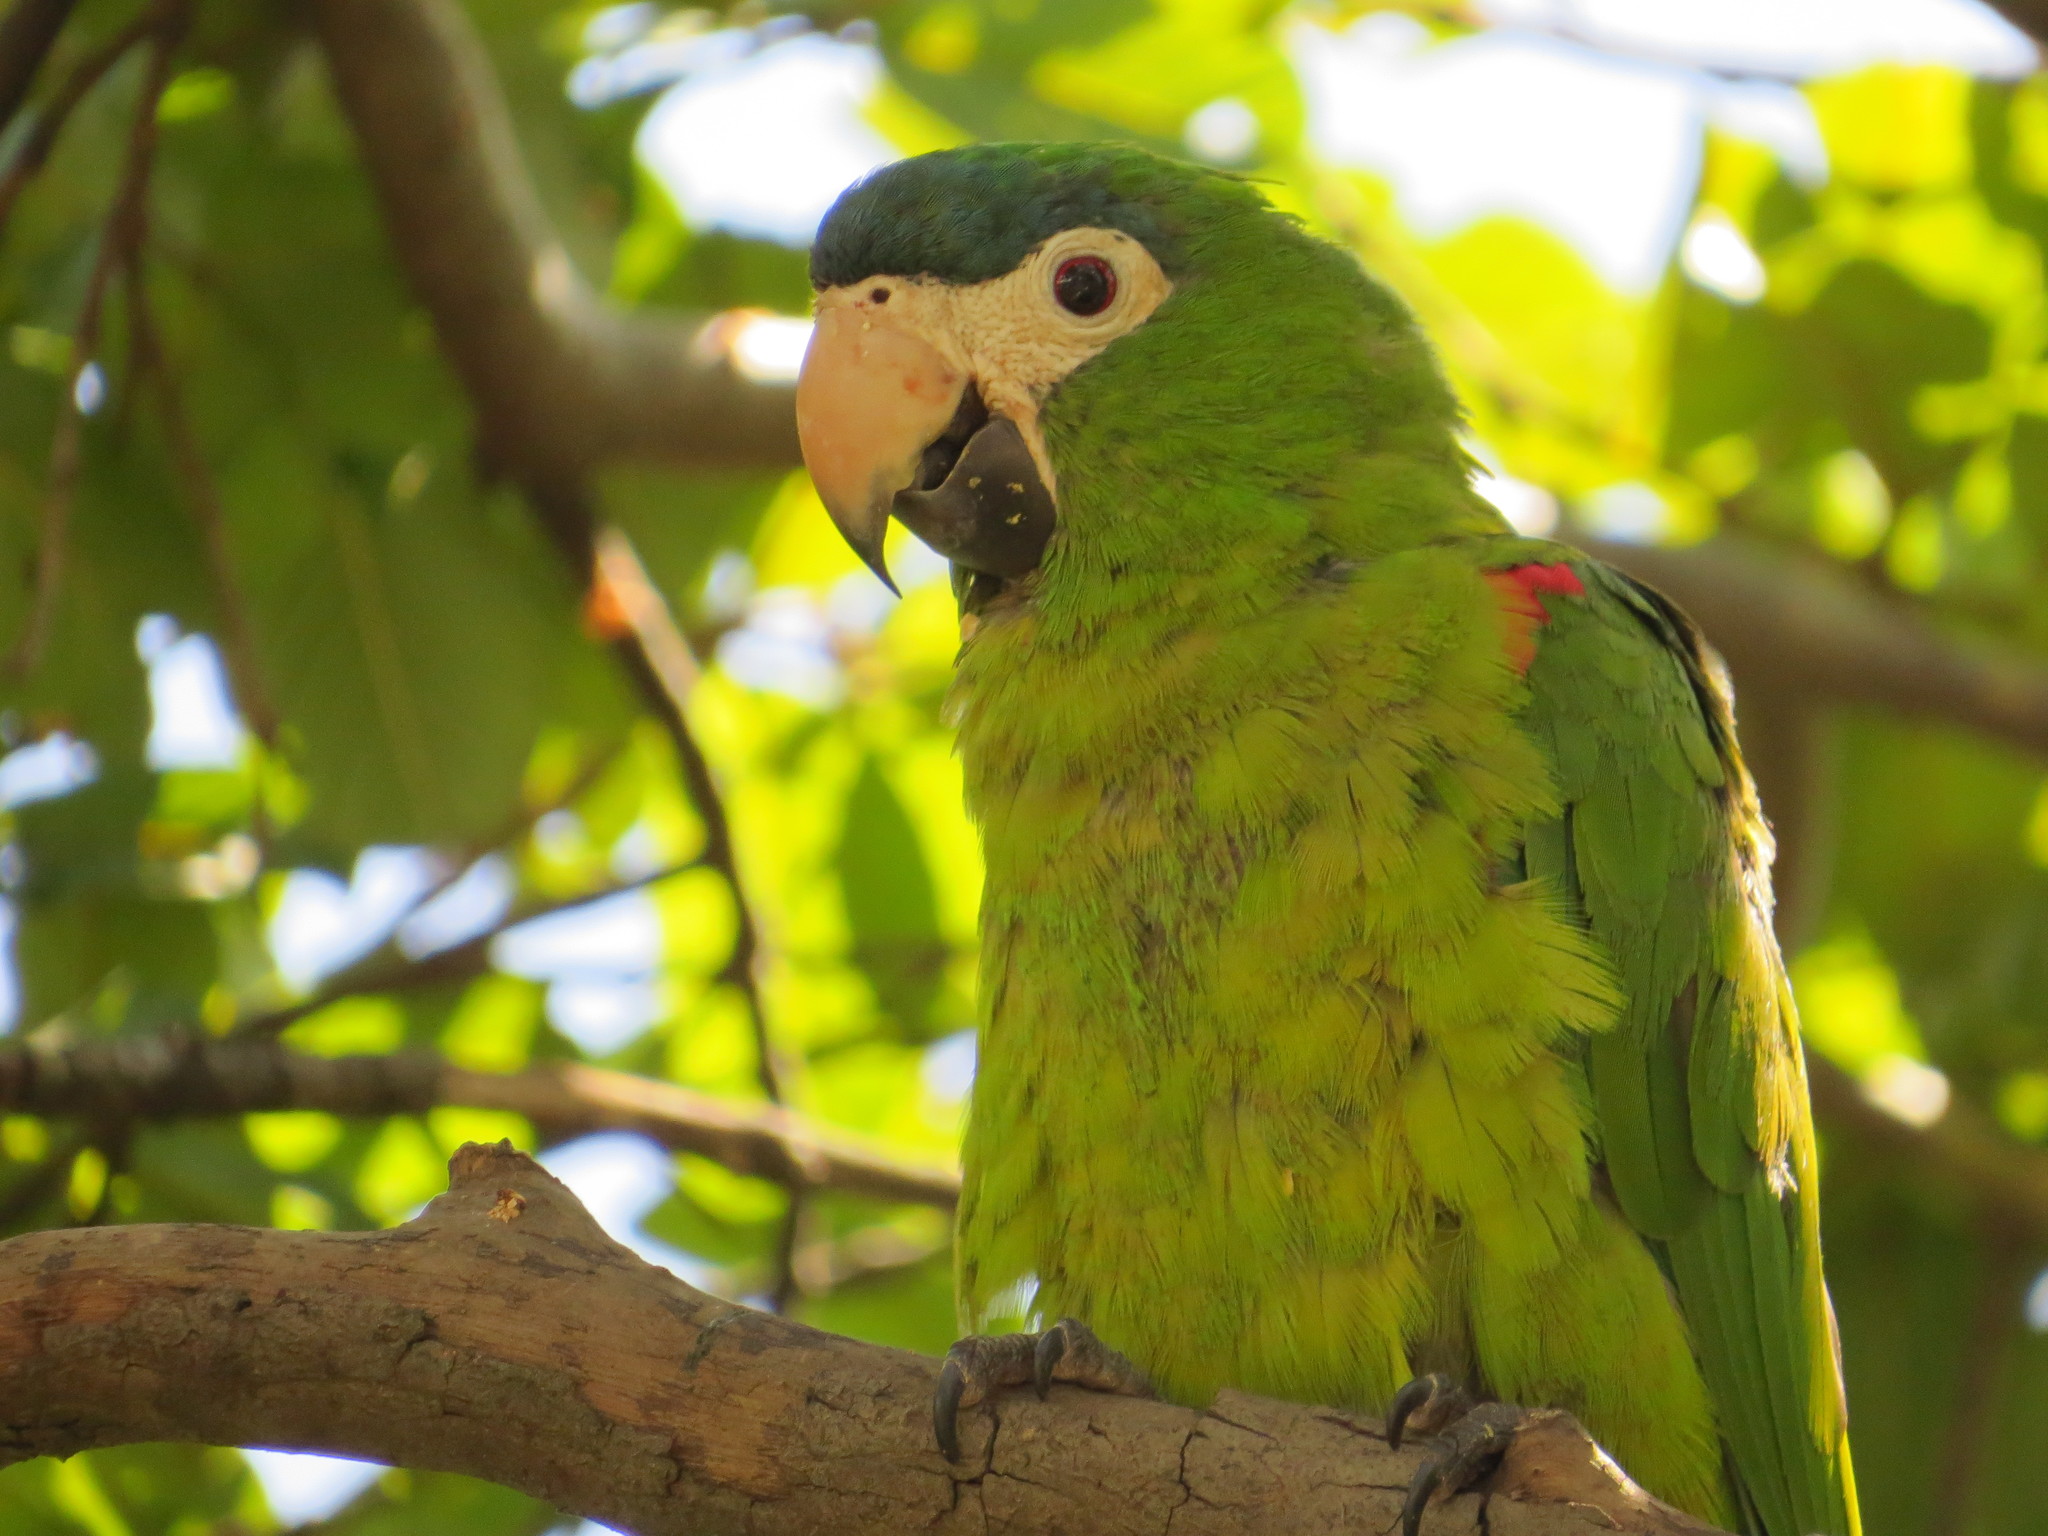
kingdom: Animalia
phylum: Chordata
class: Aves
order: Psittaciformes
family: Psittacidae
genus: Diopsittaca
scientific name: Diopsittaca nobilis
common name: Red-shouldered macaw
